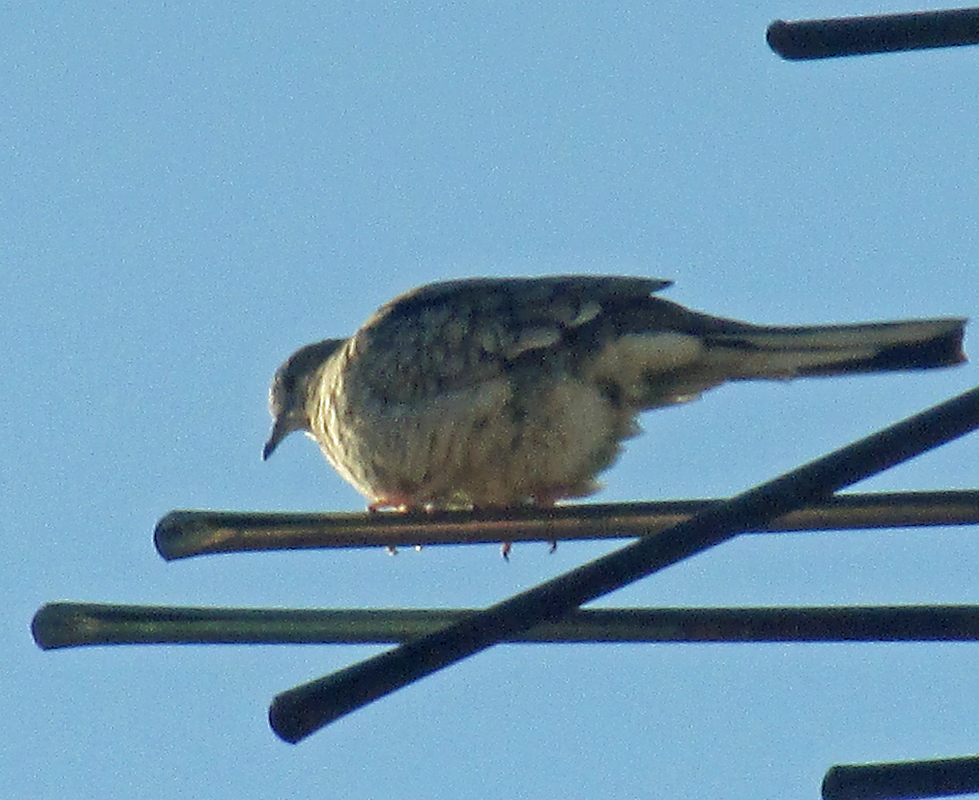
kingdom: Animalia
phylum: Chordata
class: Aves
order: Columbiformes
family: Columbidae
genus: Columbina
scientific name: Columbina inca
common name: Inca dove
